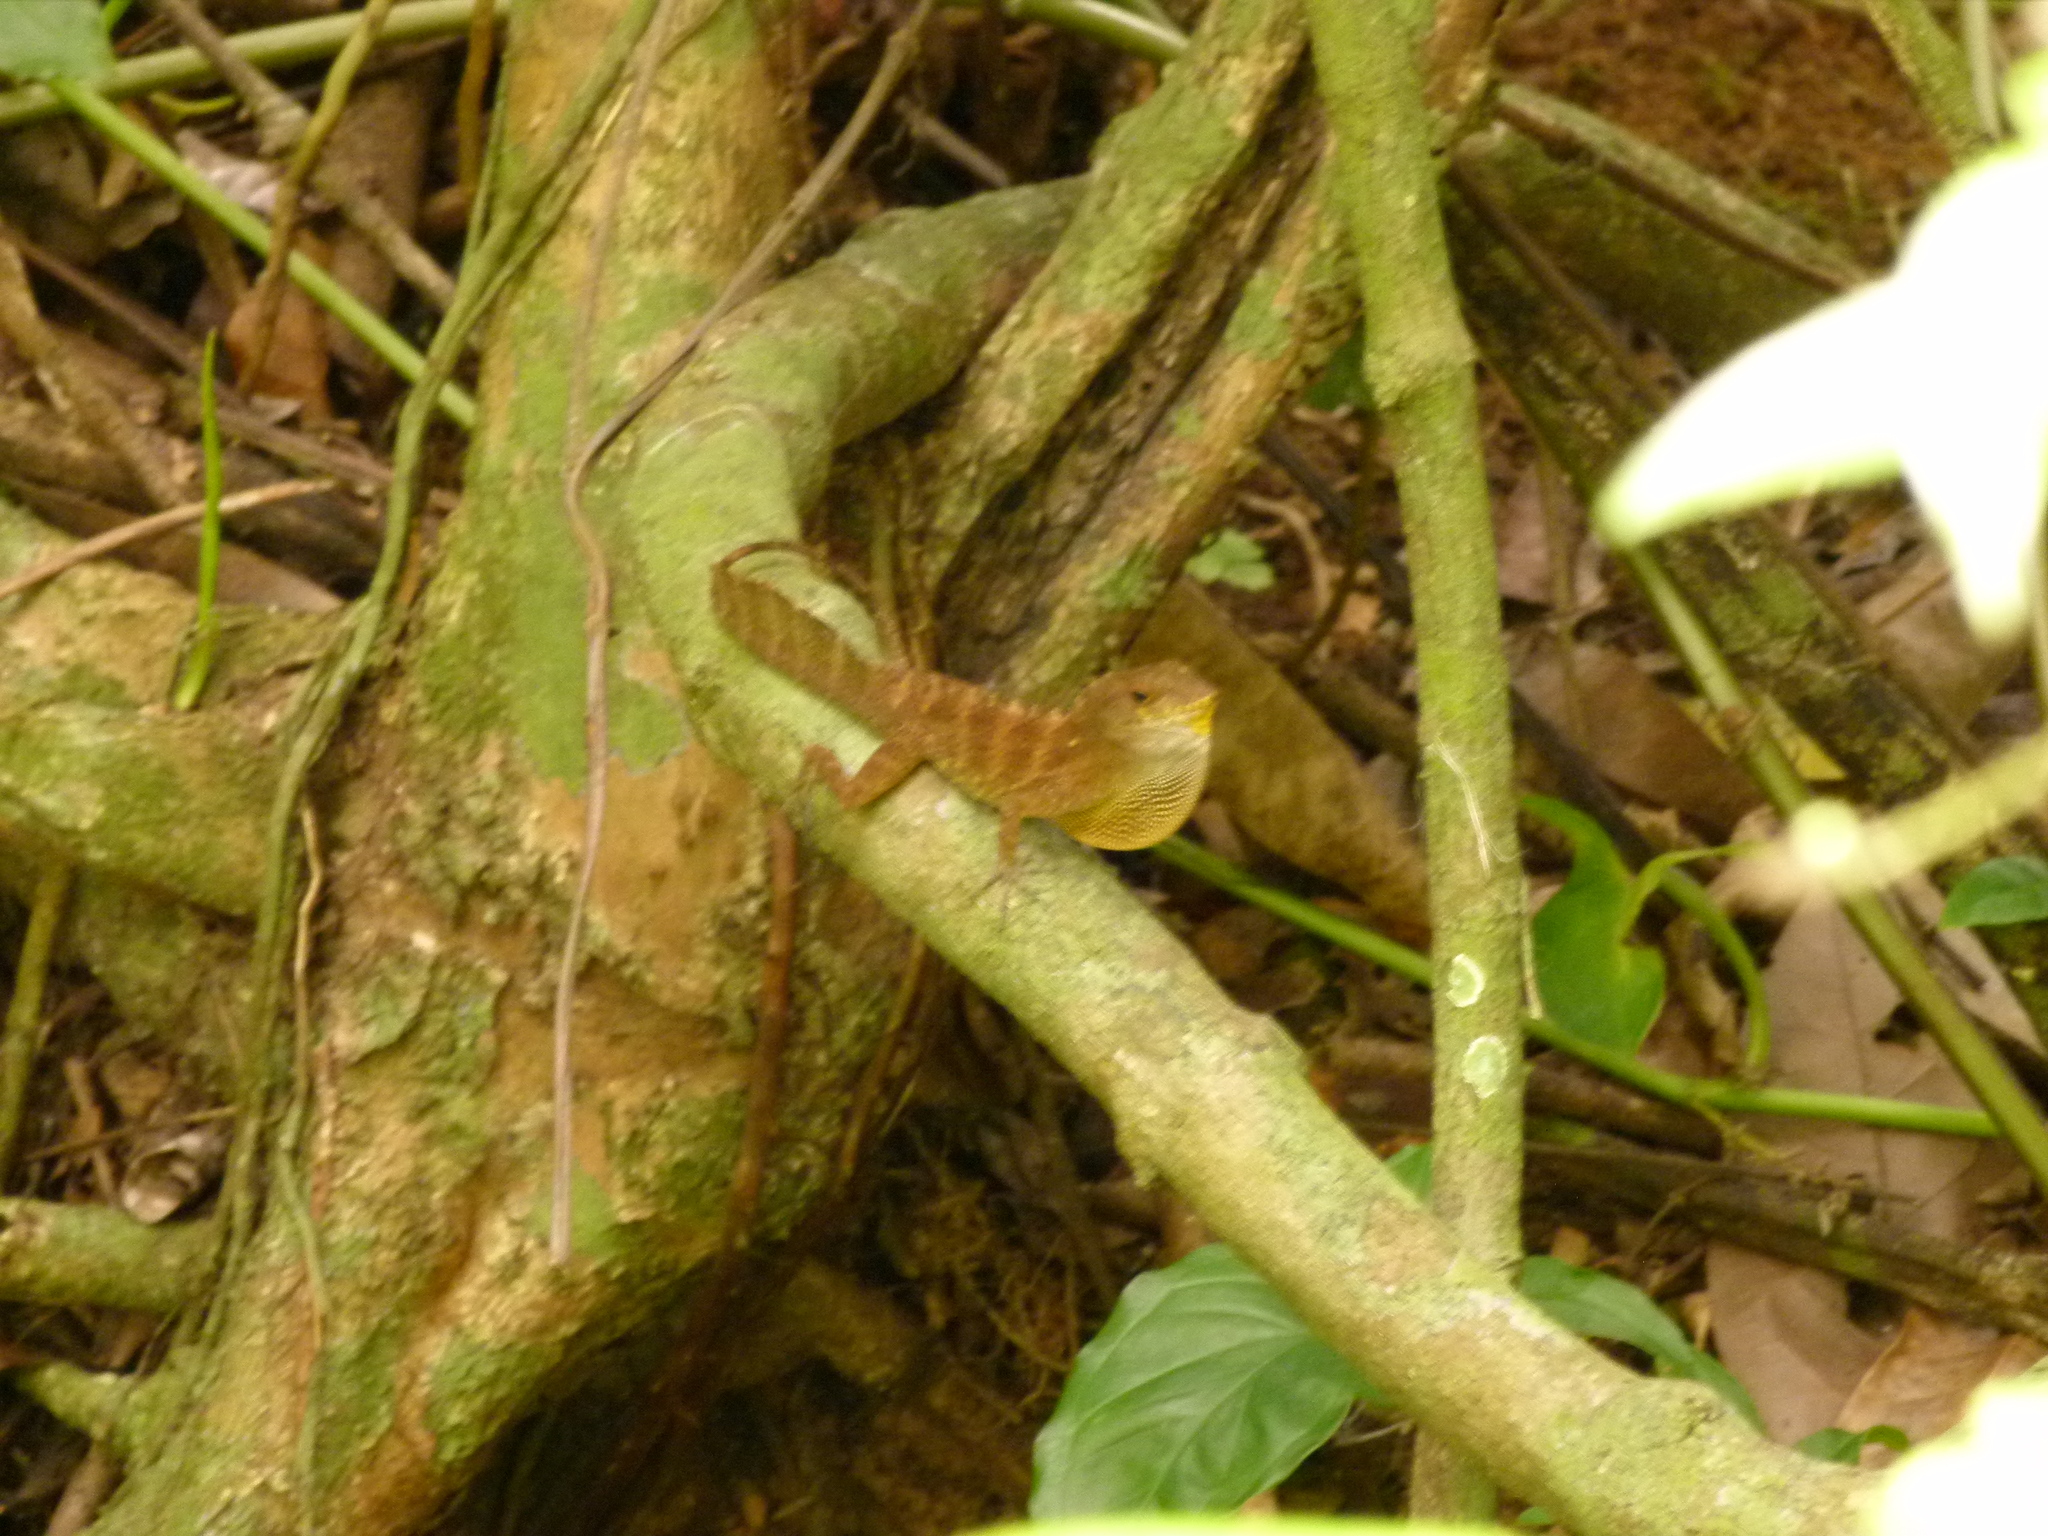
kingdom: Animalia
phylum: Chordata
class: Squamata
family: Dactyloidae
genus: Anolis
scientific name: Anolis gundlachi
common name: Gundlach’s anole
